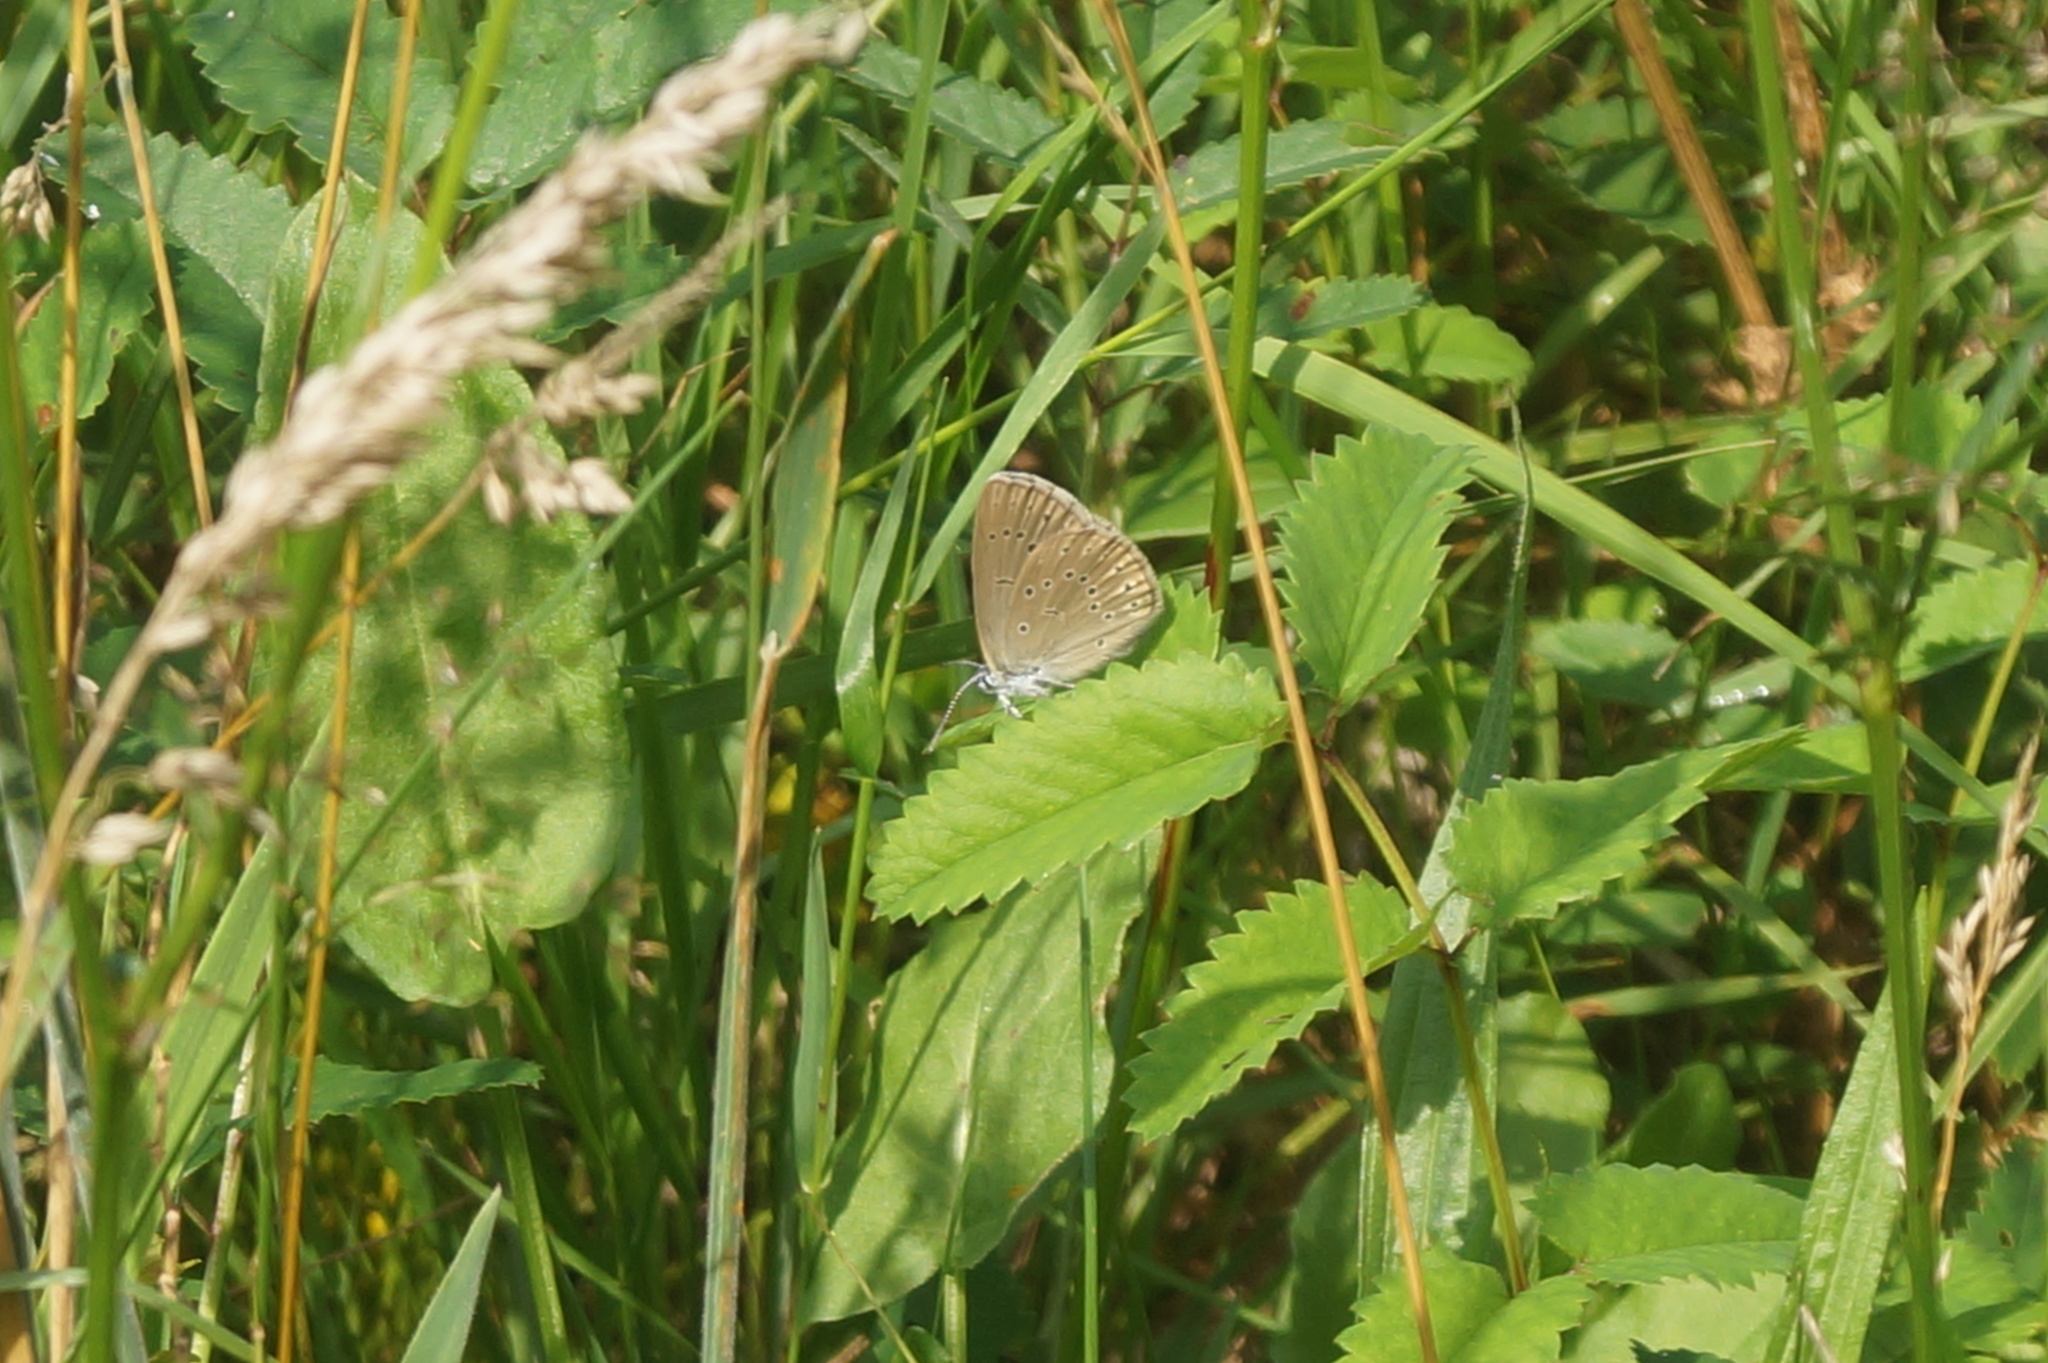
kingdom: Animalia
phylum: Arthropoda
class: Insecta
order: Lepidoptera
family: Lycaenidae
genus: Phengaris
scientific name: Phengaris teleius
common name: Scarce large blue
